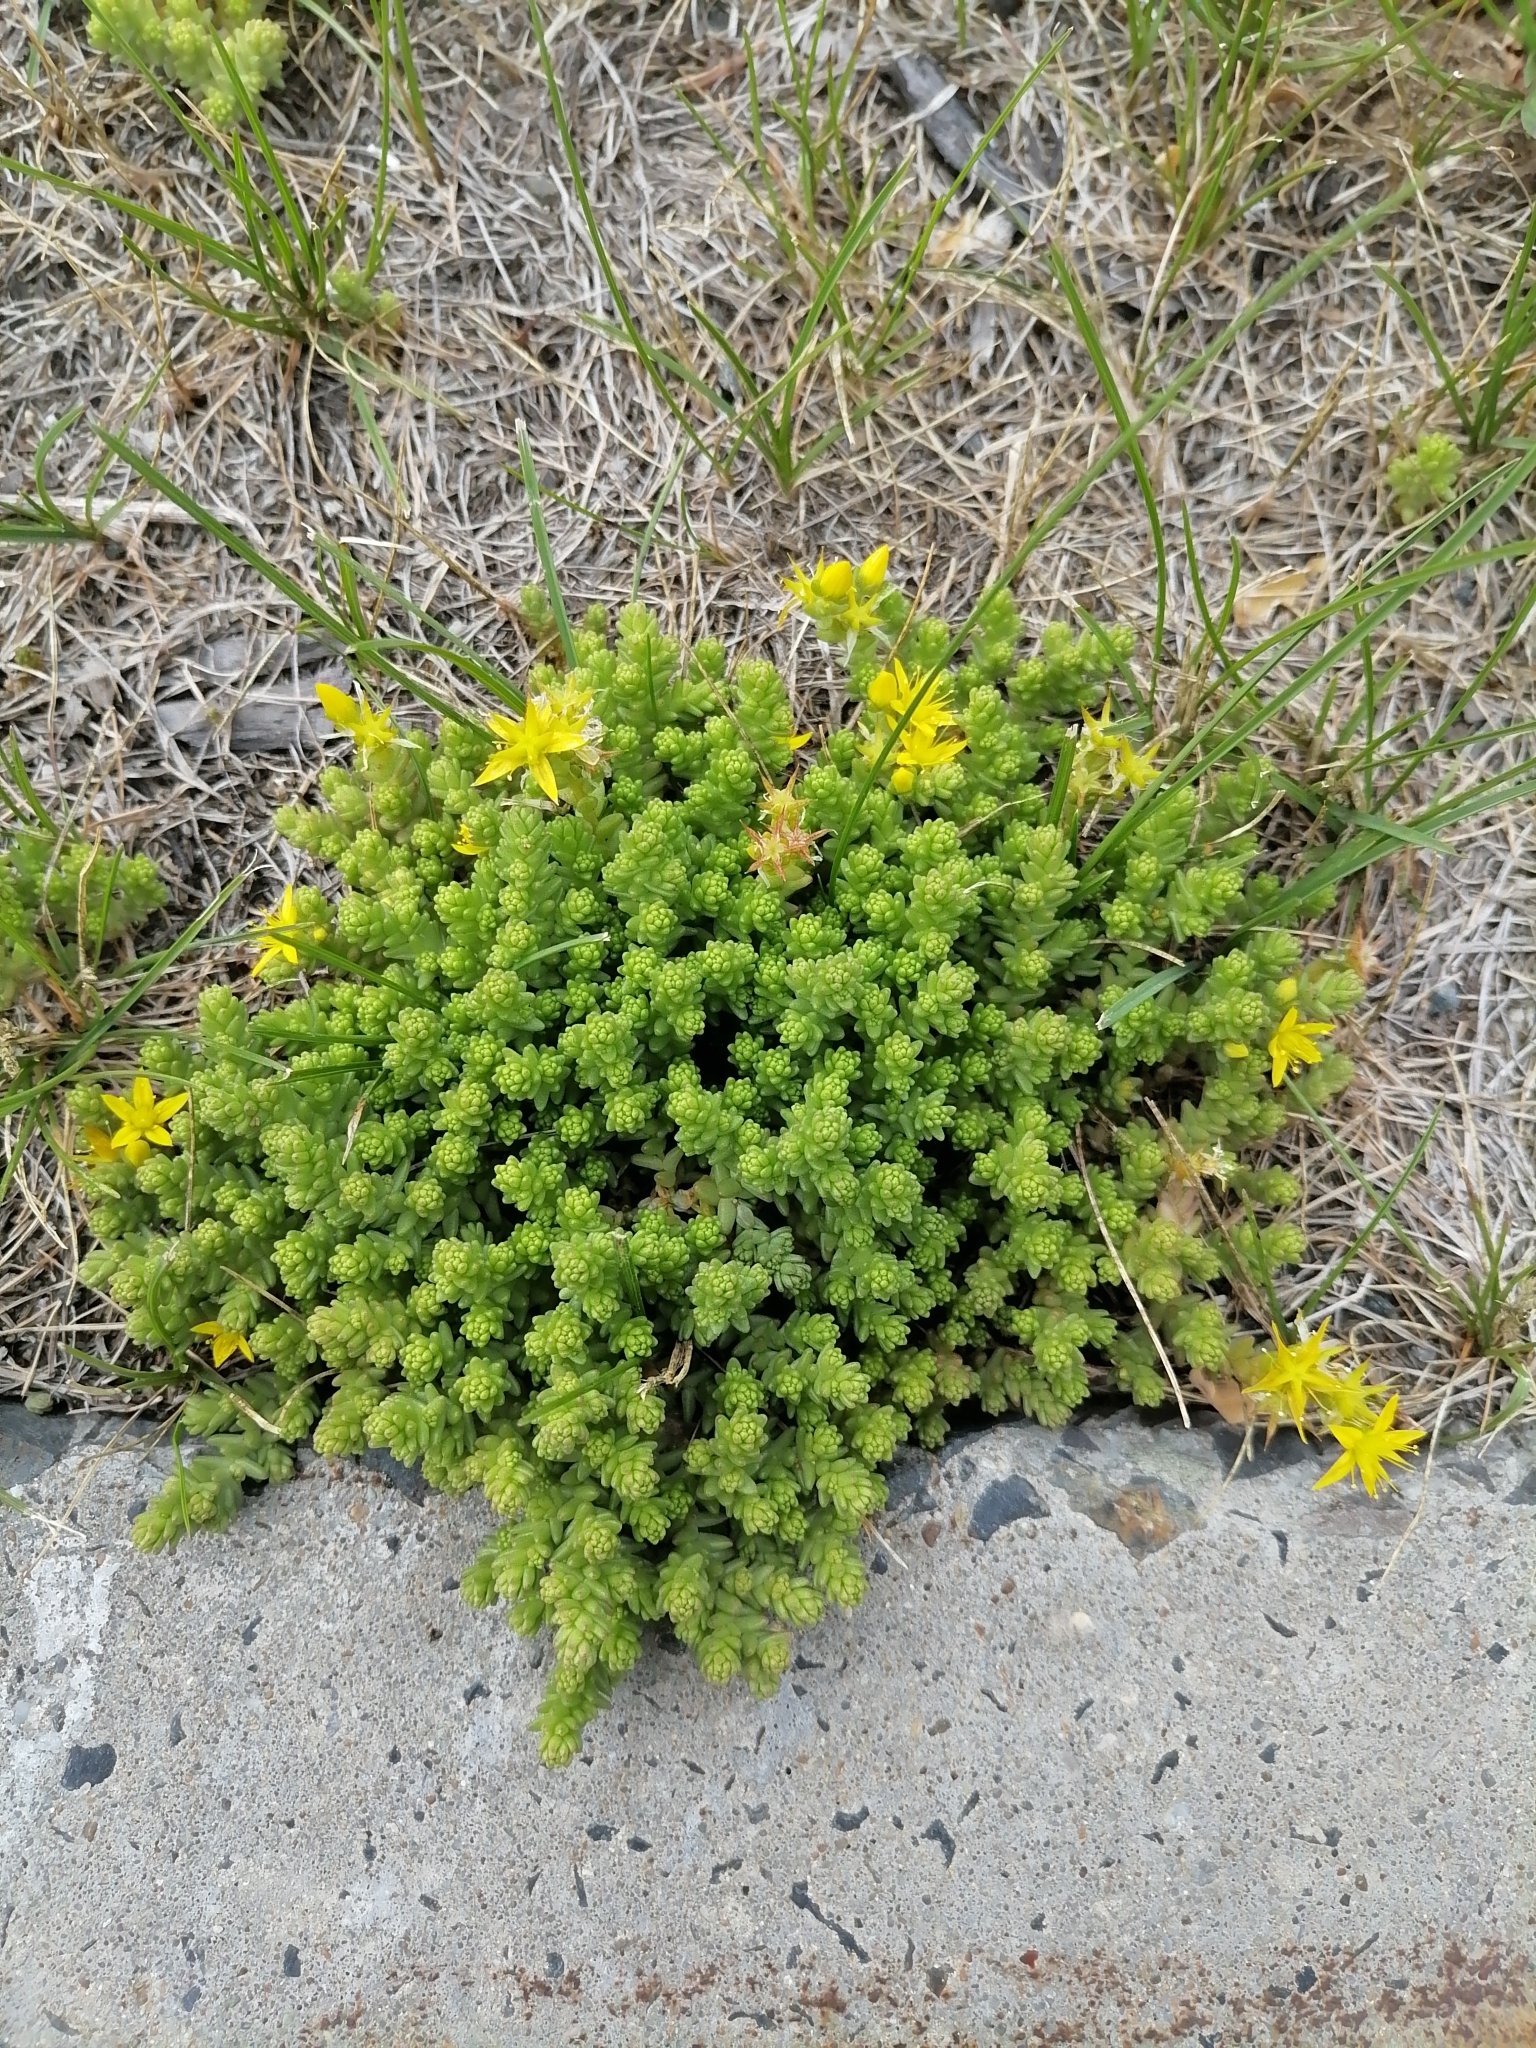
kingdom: Plantae
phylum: Tracheophyta
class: Magnoliopsida
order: Saxifragales
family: Crassulaceae
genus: Sedum
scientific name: Sedum acre
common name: Biting stonecrop
